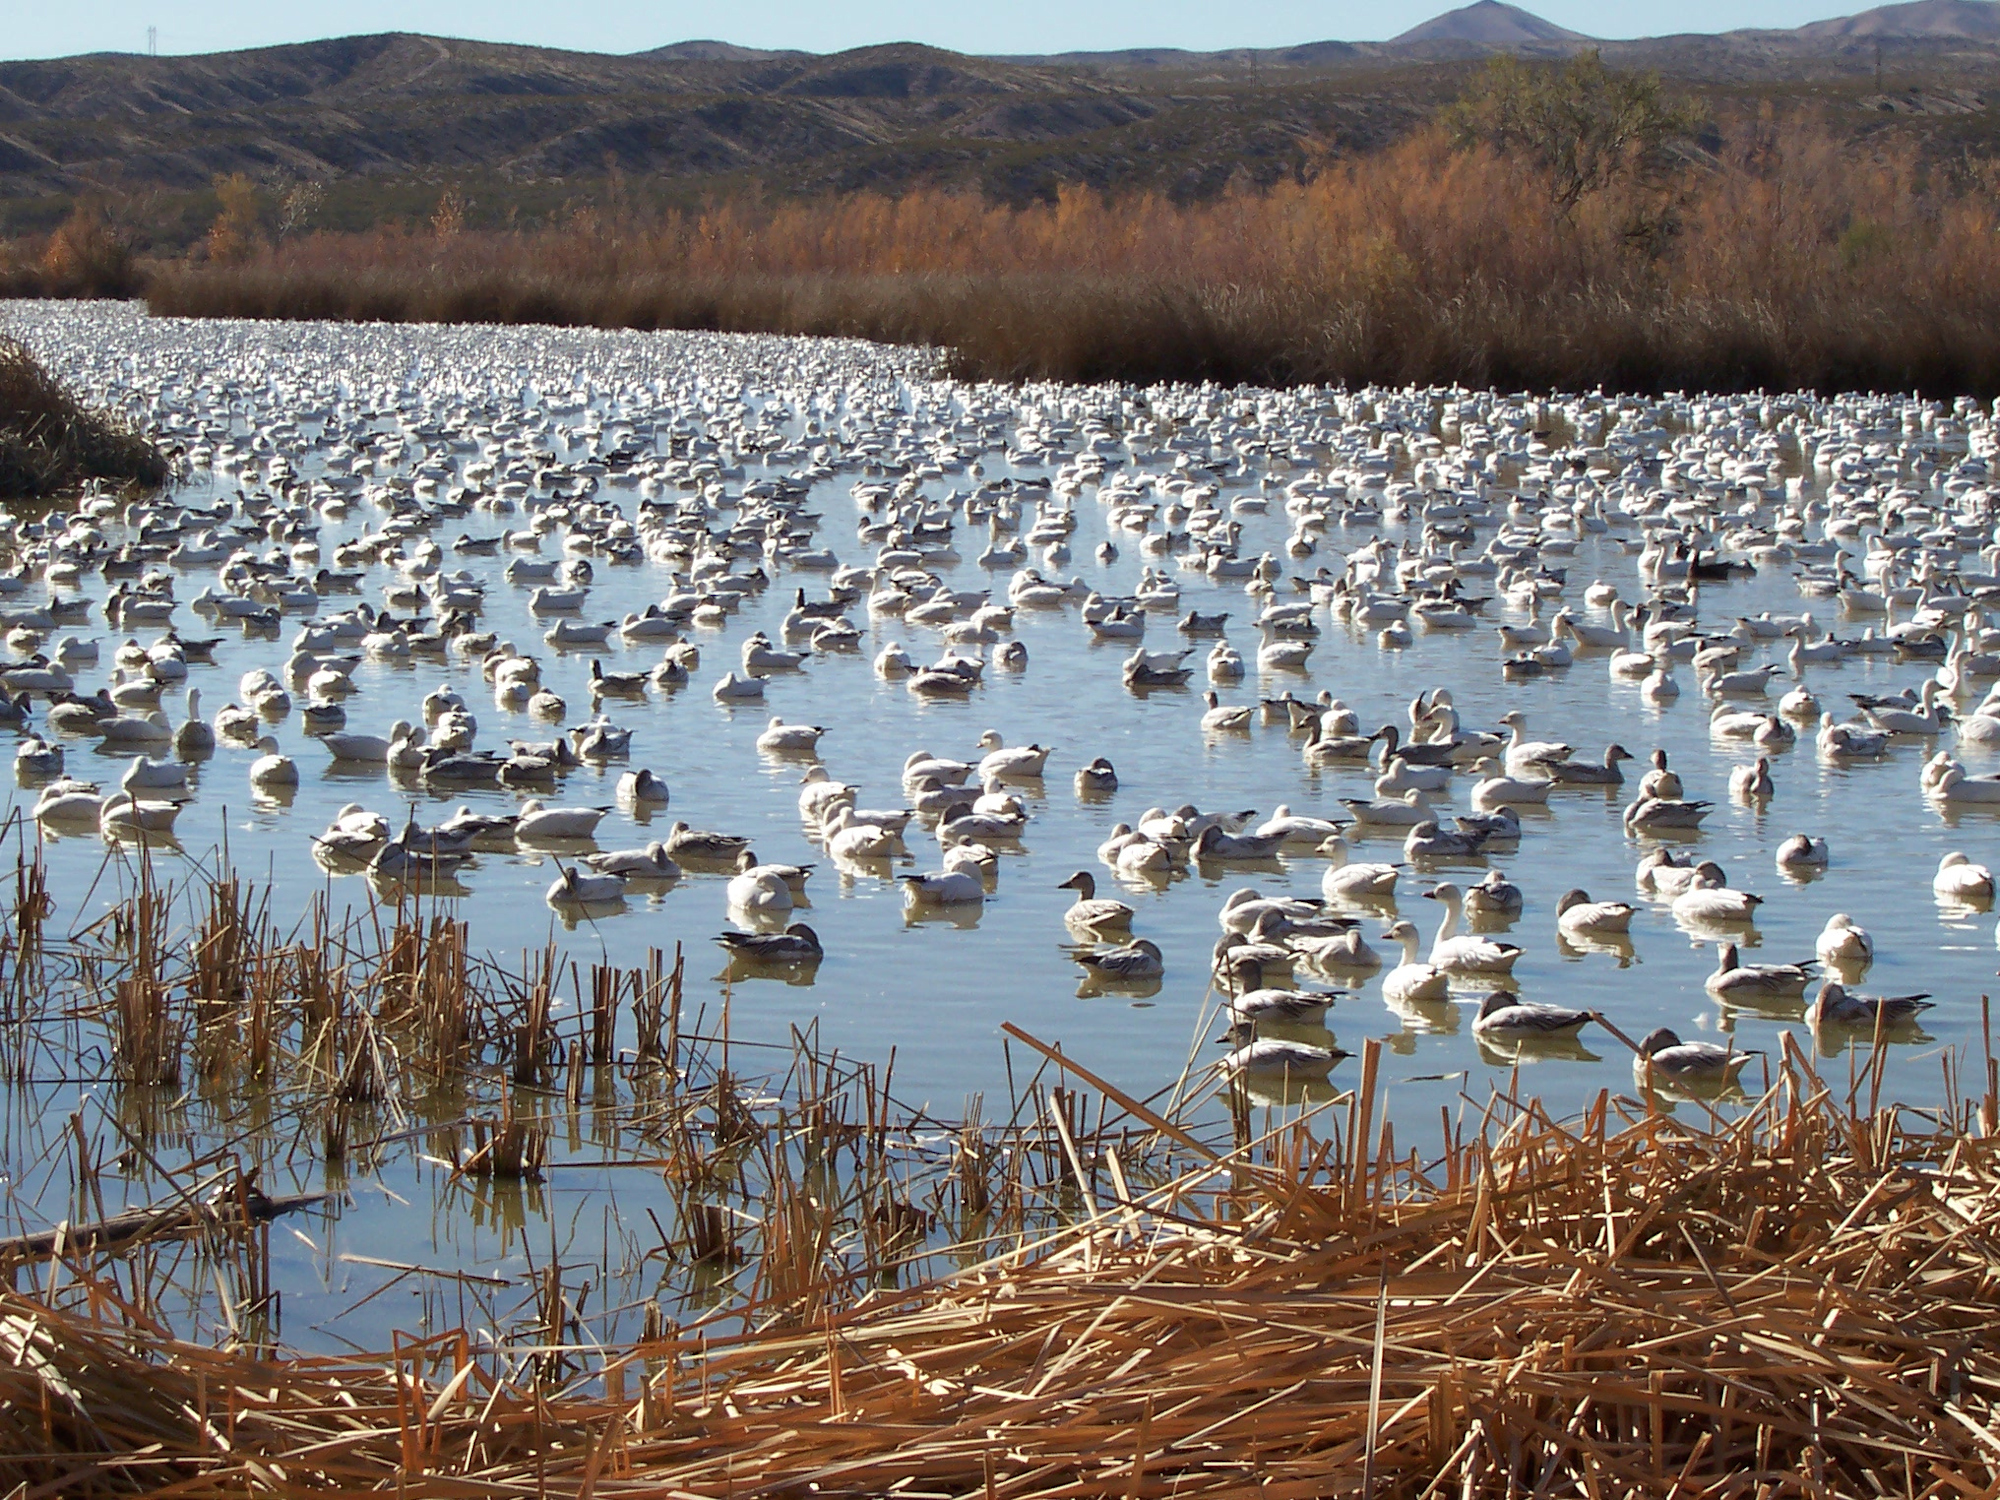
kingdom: Animalia
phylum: Chordata
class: Aves
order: Anseriformes
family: Anatidae
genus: Anser
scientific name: Anser caerulescens
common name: Snow goose
